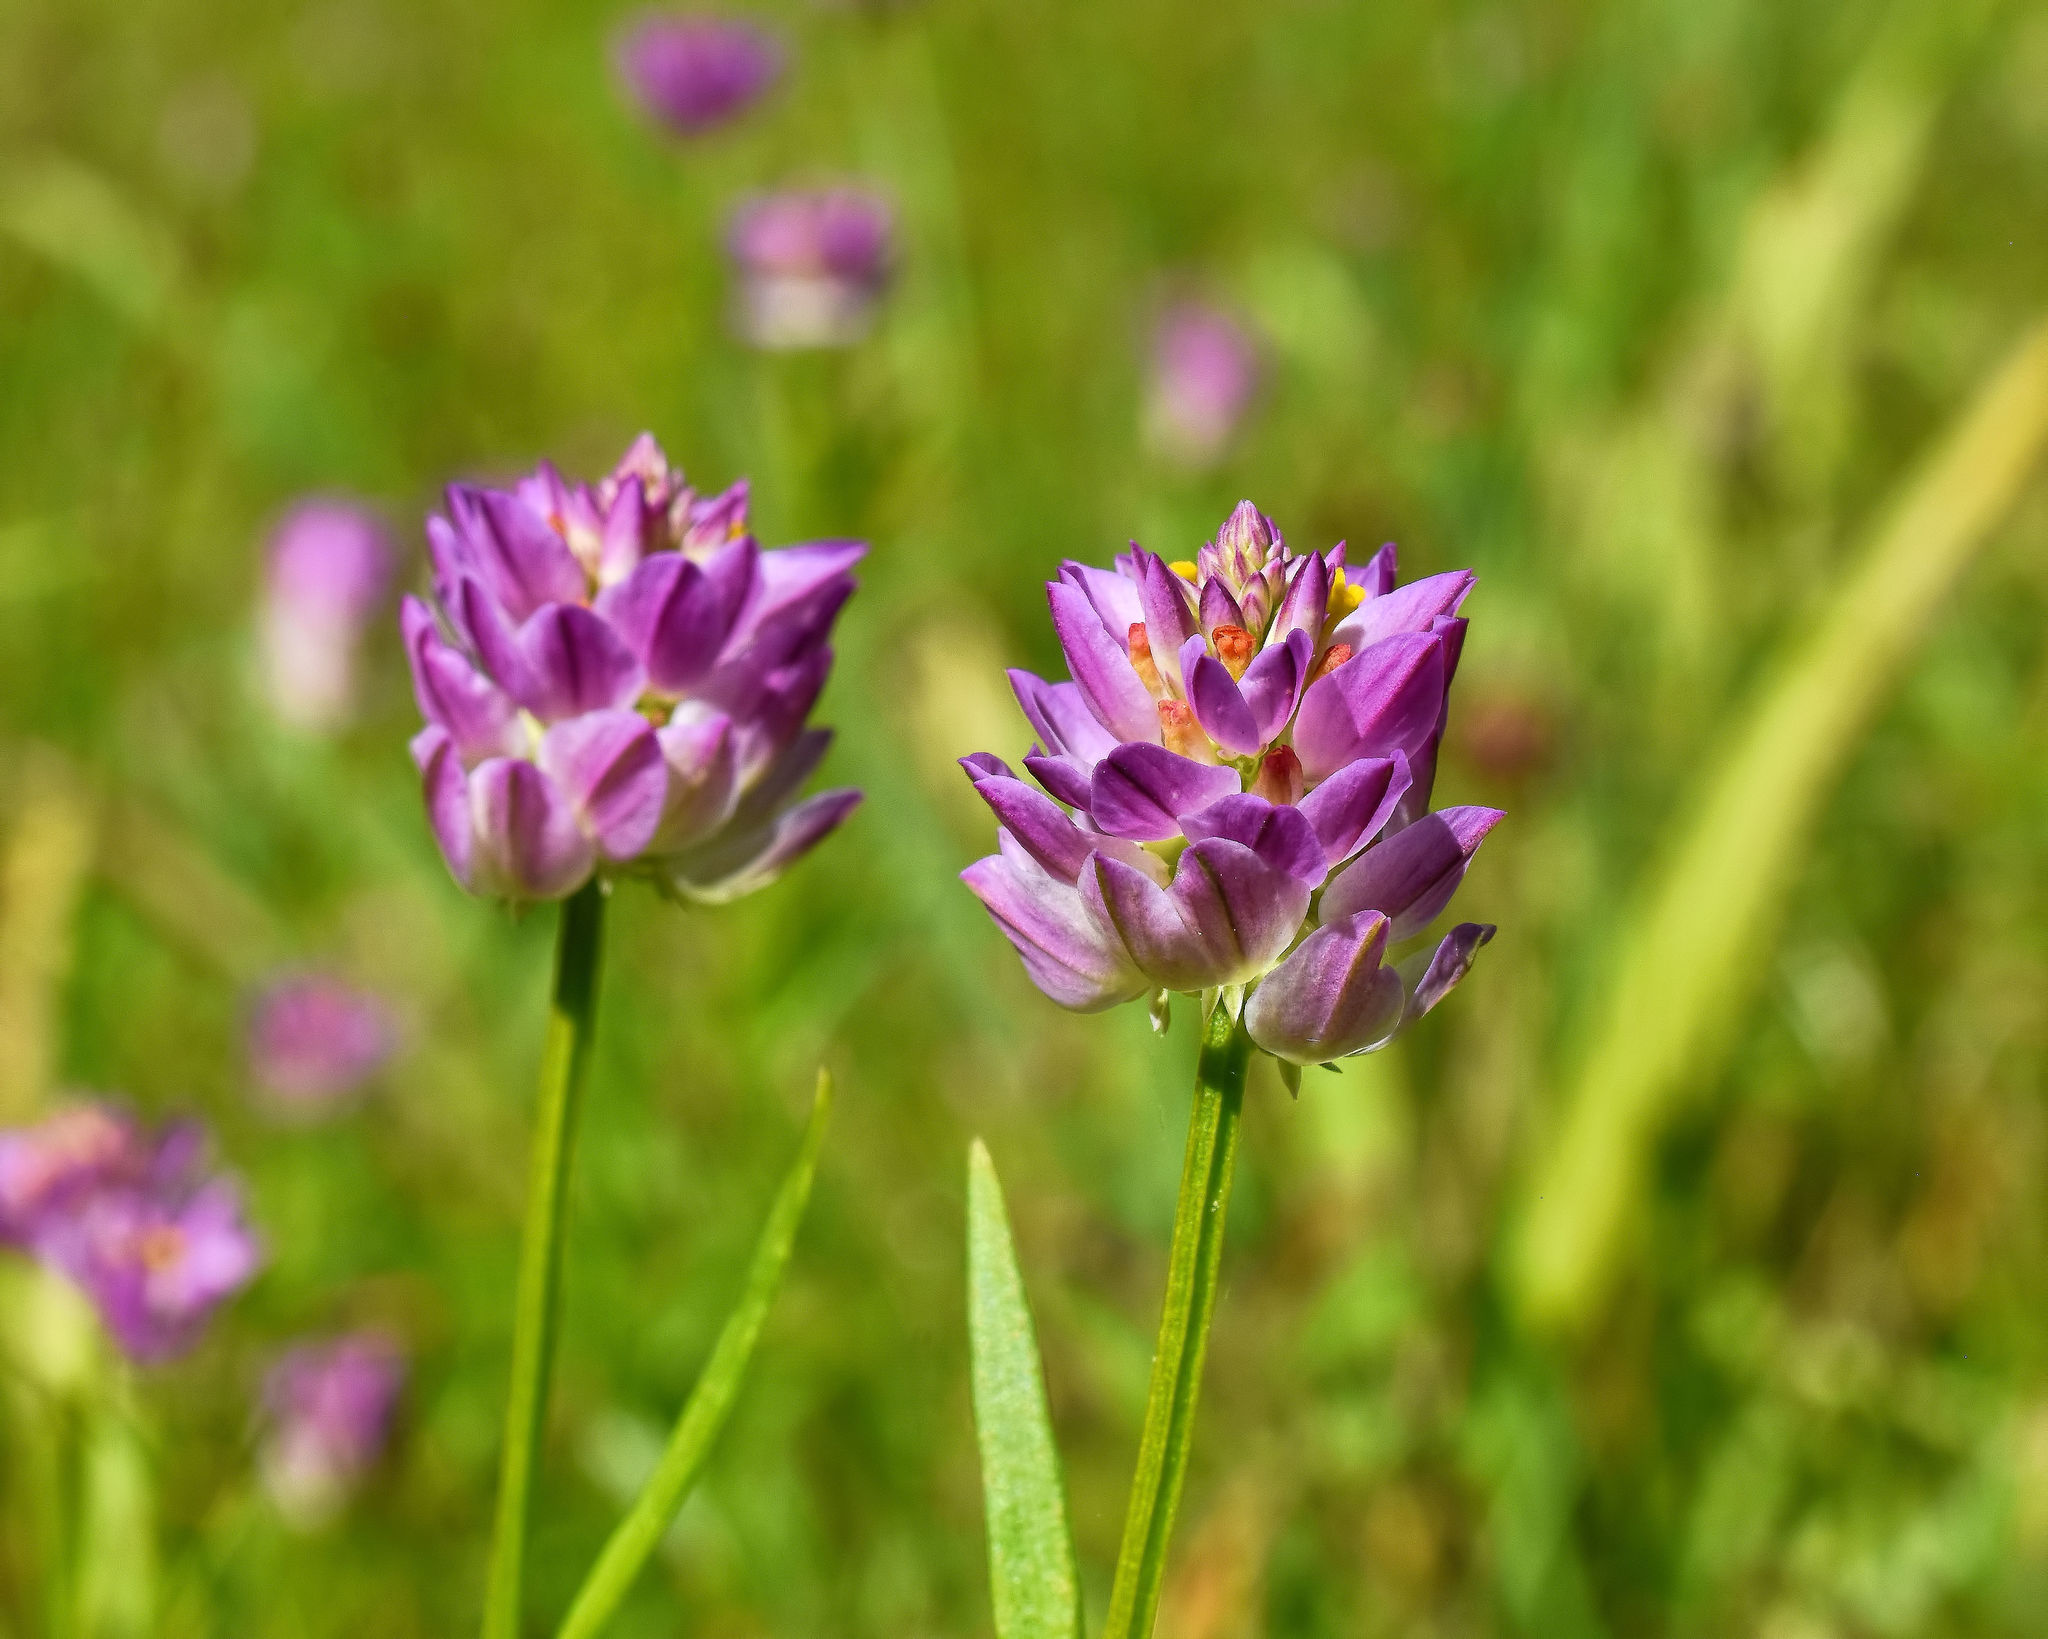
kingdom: Plantae
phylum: Tracheophyta
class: Magnoliopsida
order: Fabales
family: Polygalaceae
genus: Polygala
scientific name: Polygala sanguinea
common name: Blood milkwort
